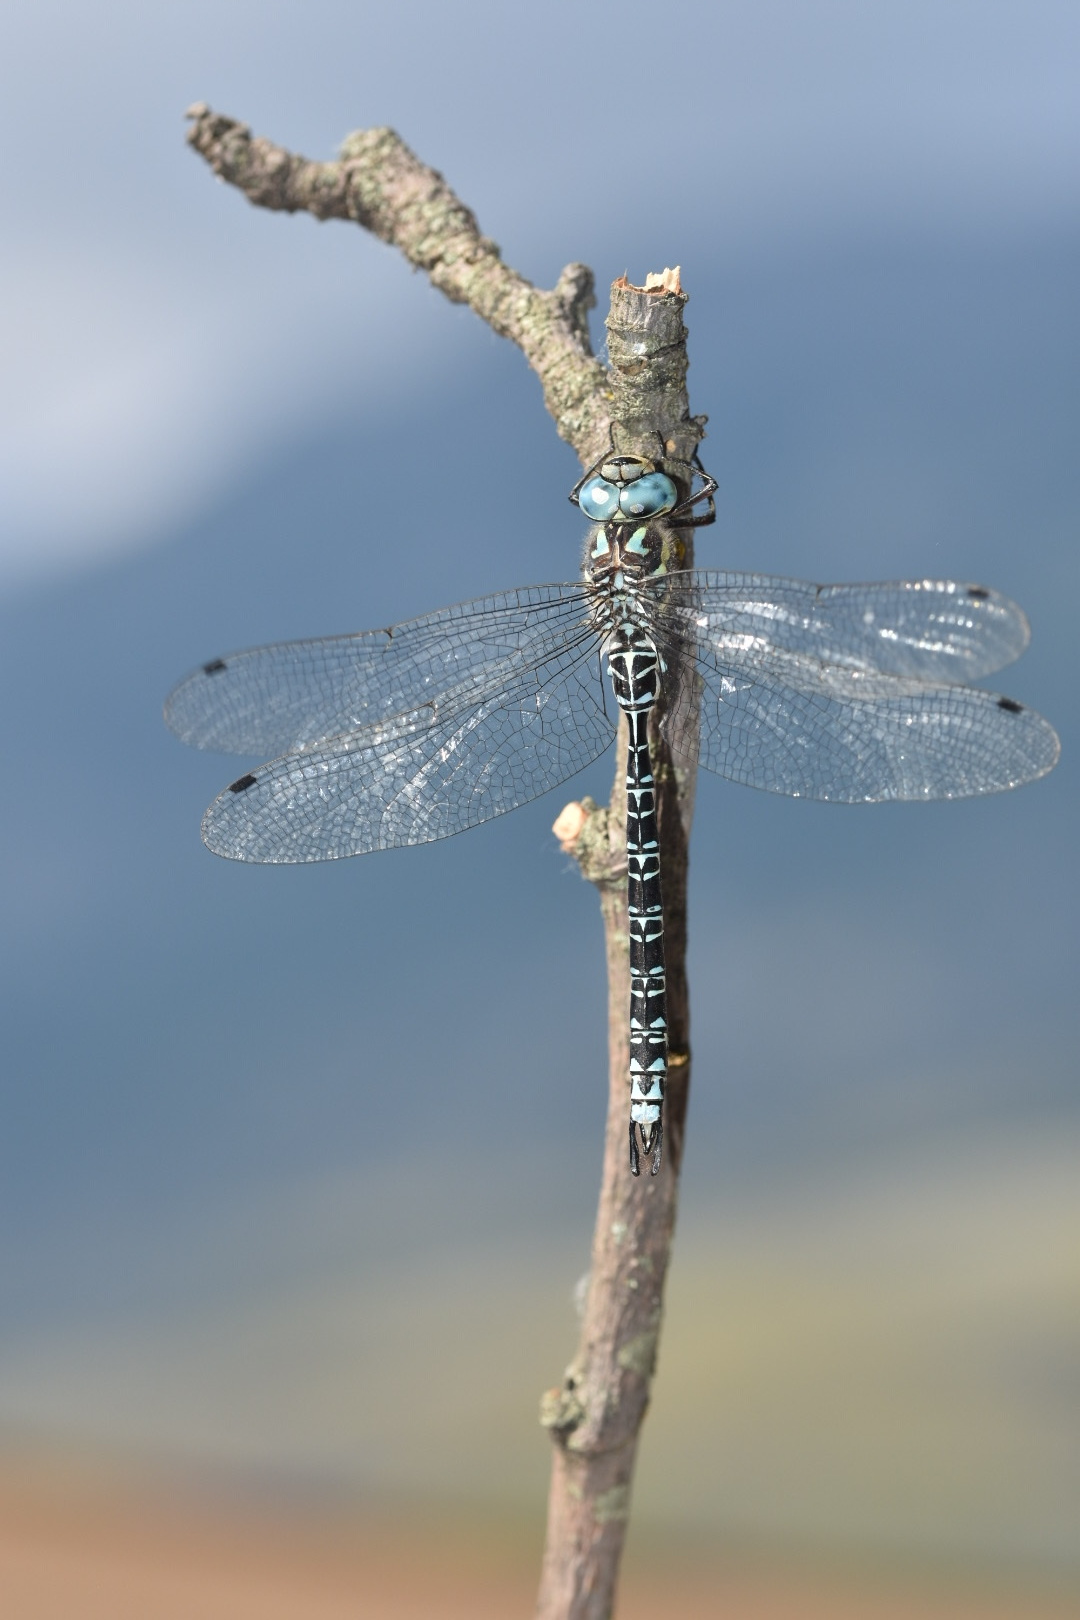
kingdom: Animalia
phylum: Arthropoda
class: Insecta
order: Odonata
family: Aeshnidae
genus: Caliaeschna
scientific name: Caliaeschna microstigma
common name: Eastern spectre
